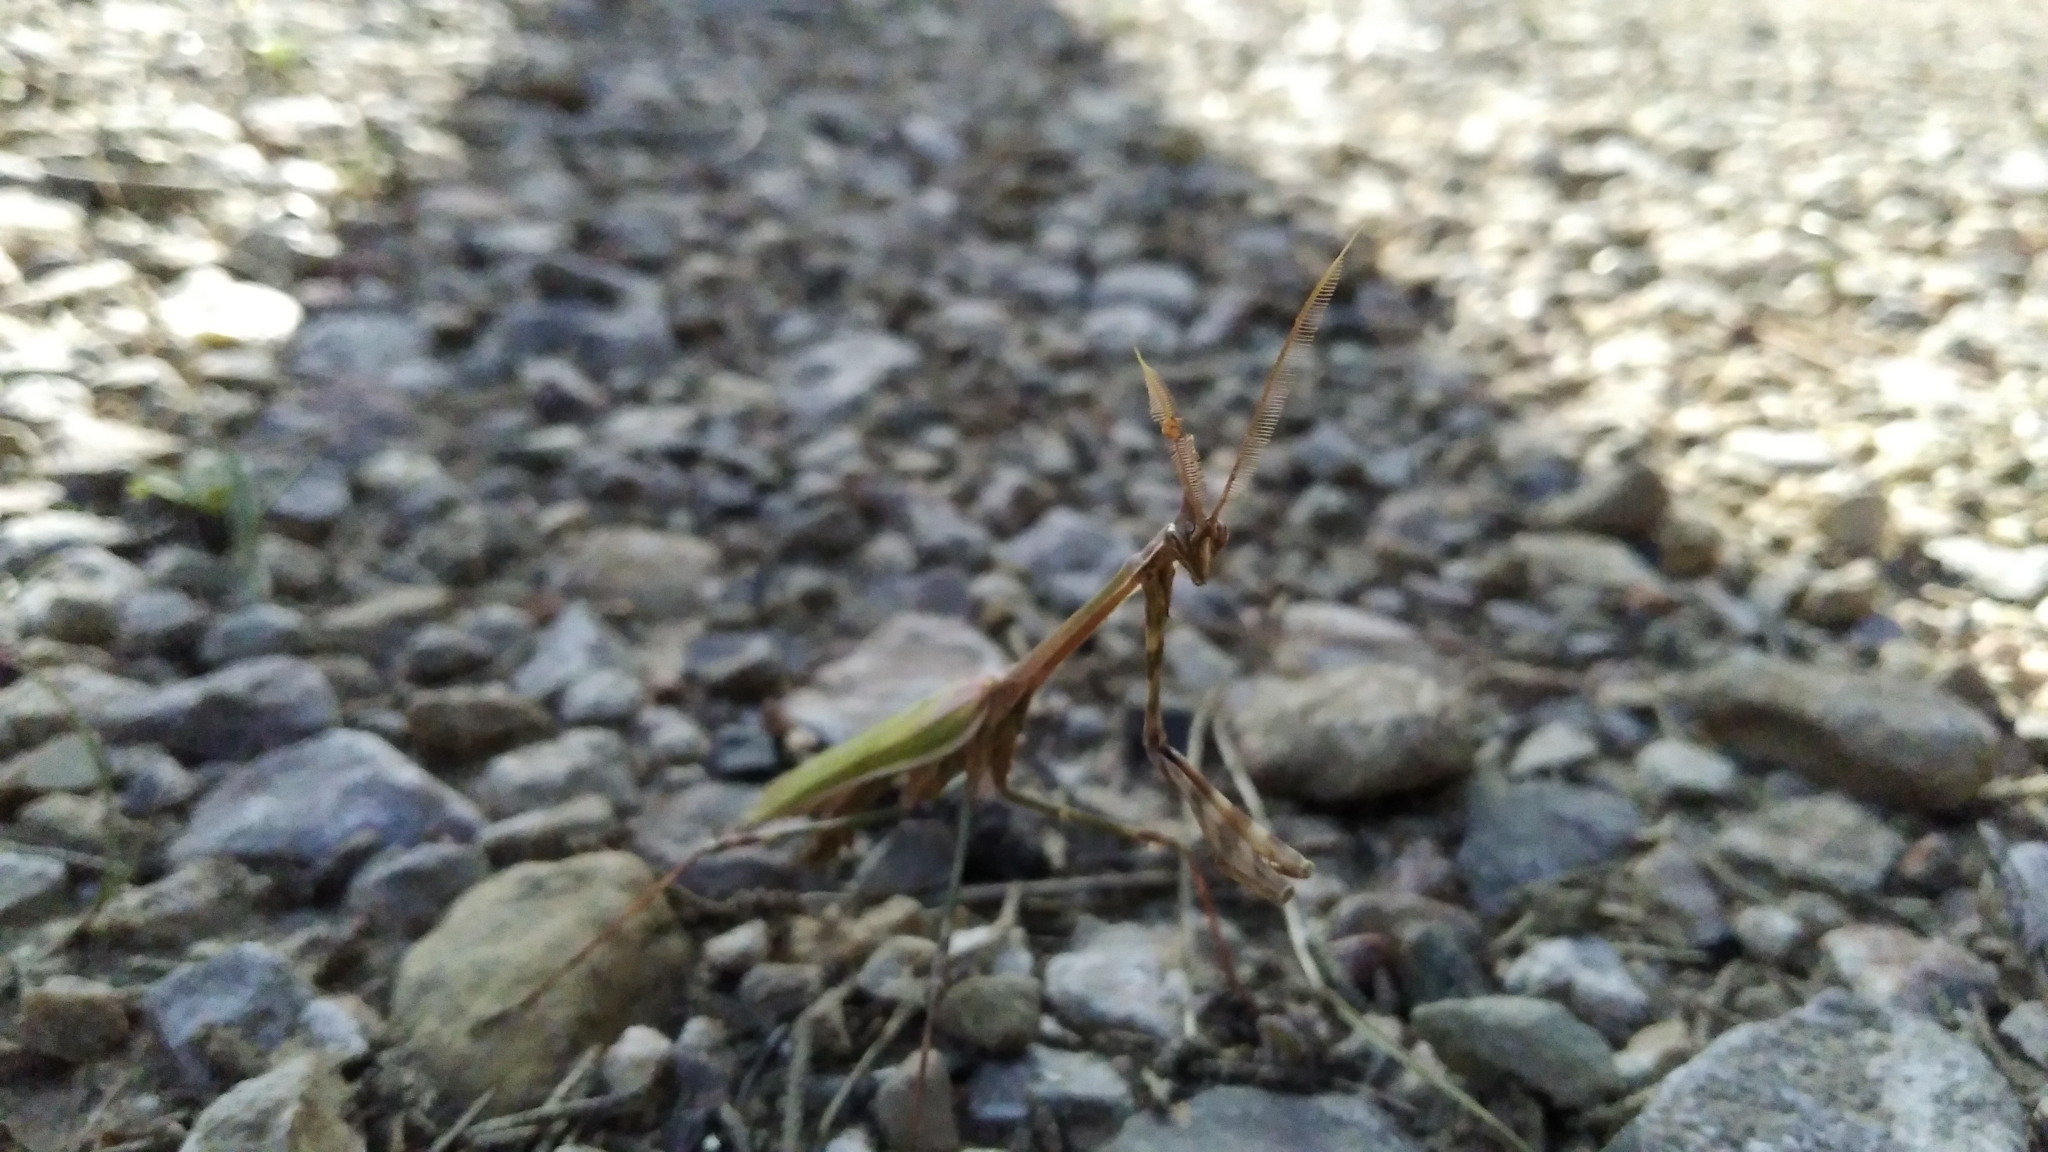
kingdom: Animalia
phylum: Arthropoda
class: Insecta
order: Mantodea
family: Empusidae
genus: Empusa
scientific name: Empusa pennata
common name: Conehead mantis
